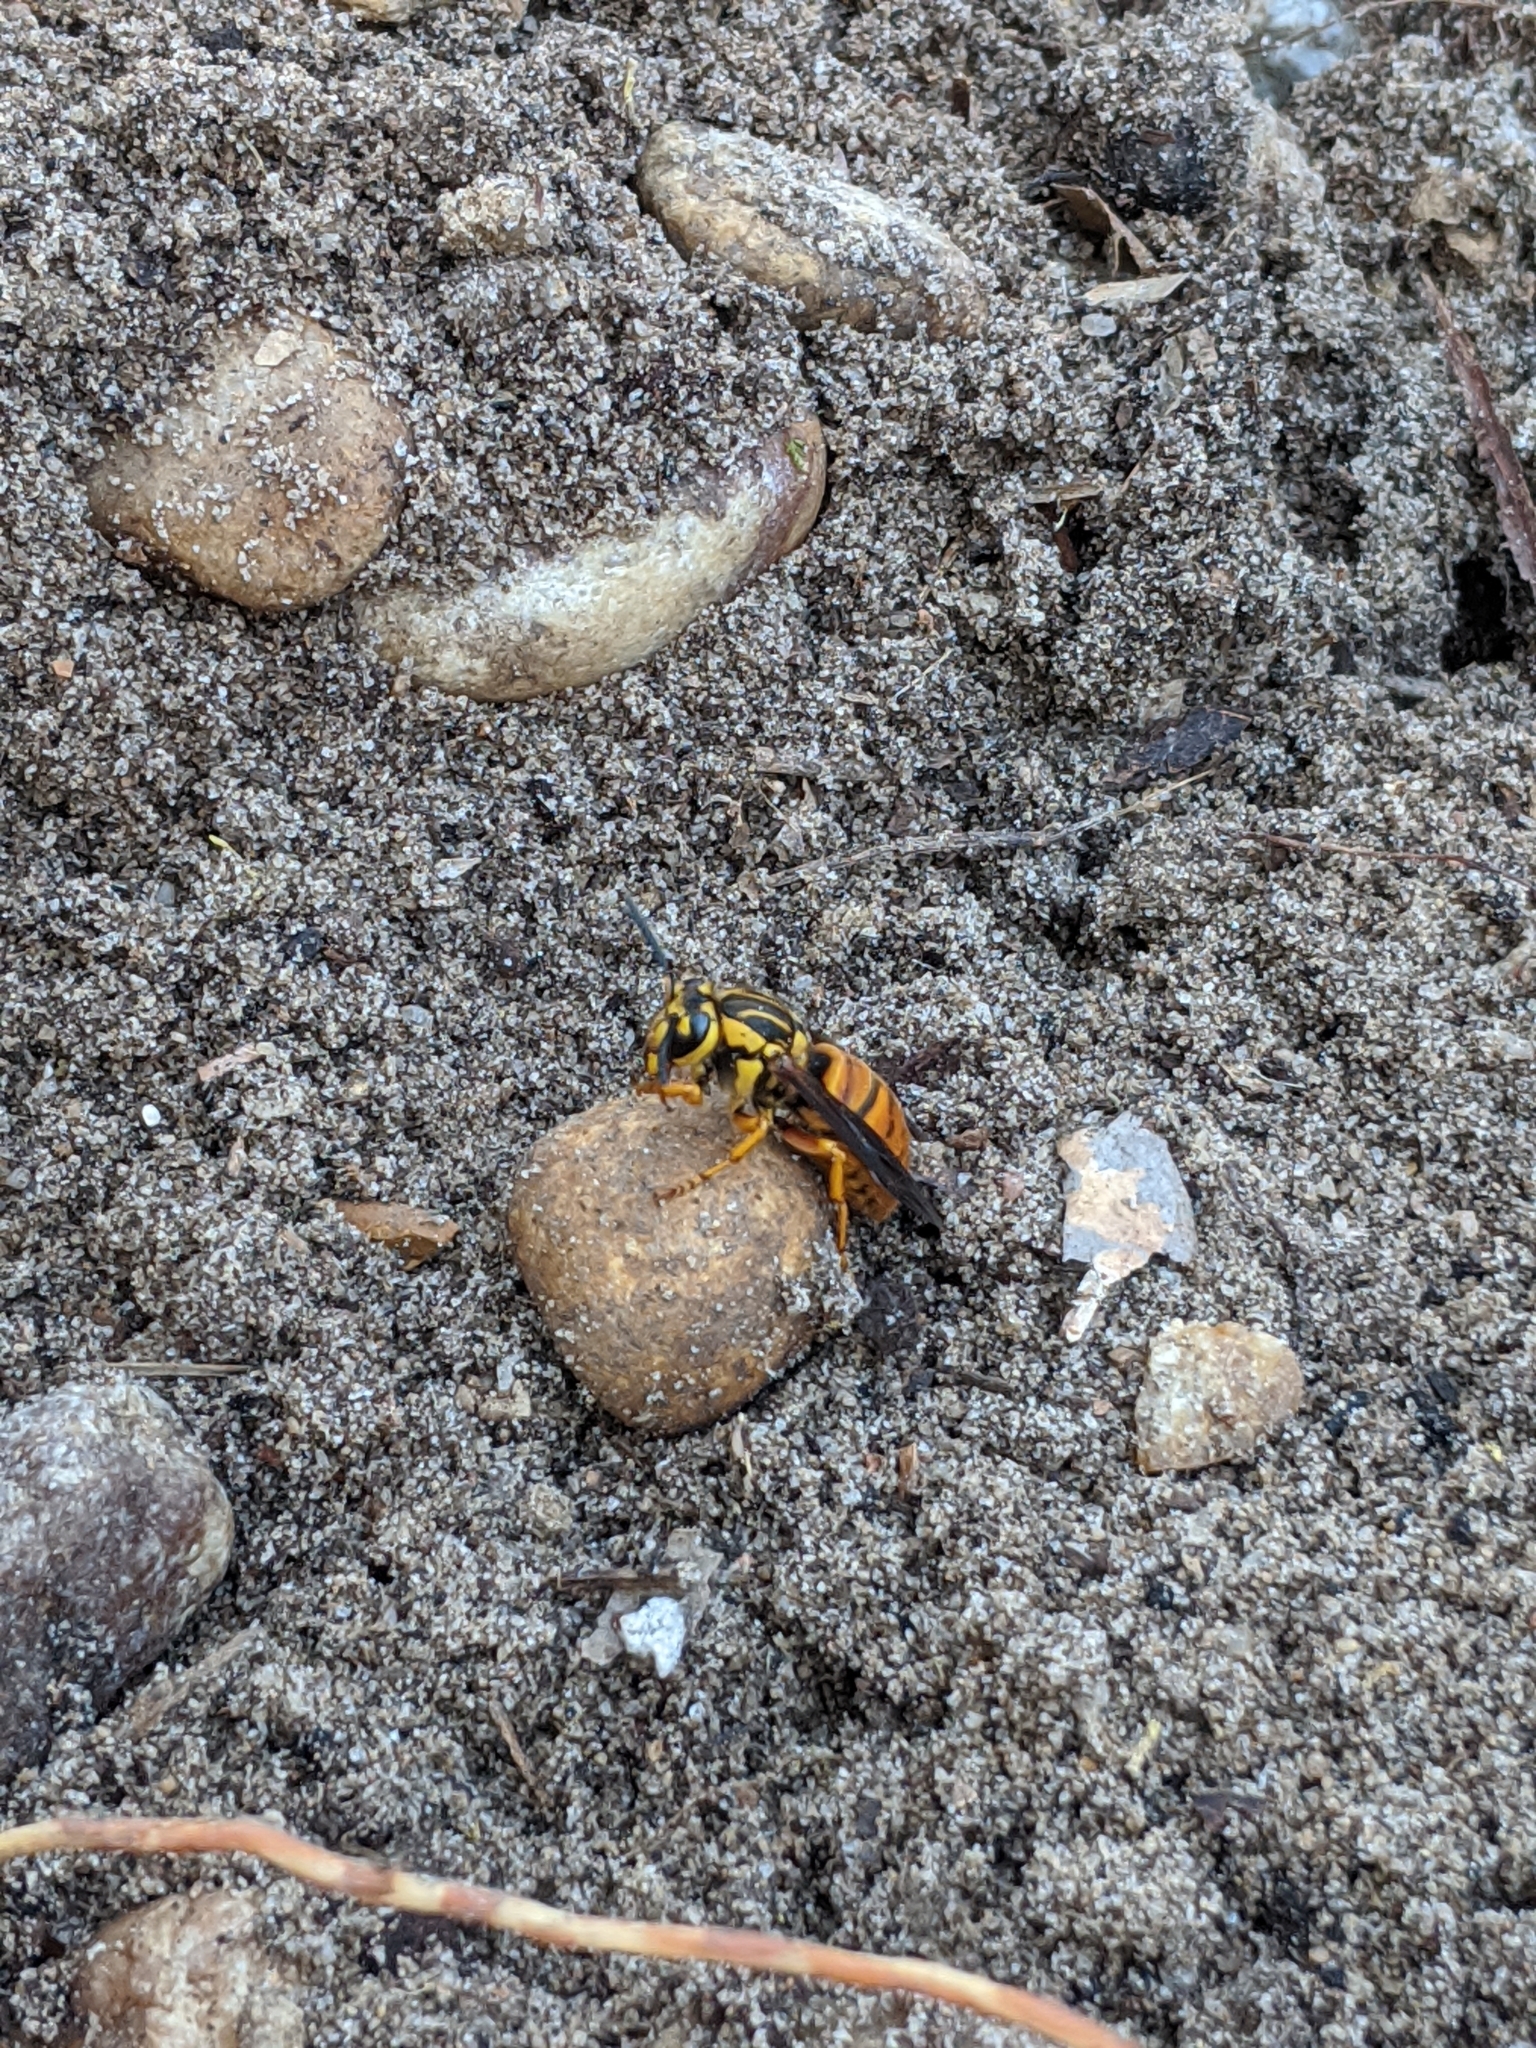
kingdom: Animalia
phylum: Arthropoda
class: Insecta
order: Hymenoptera
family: Vespidae
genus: Vespula
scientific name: Vespula squamosa
